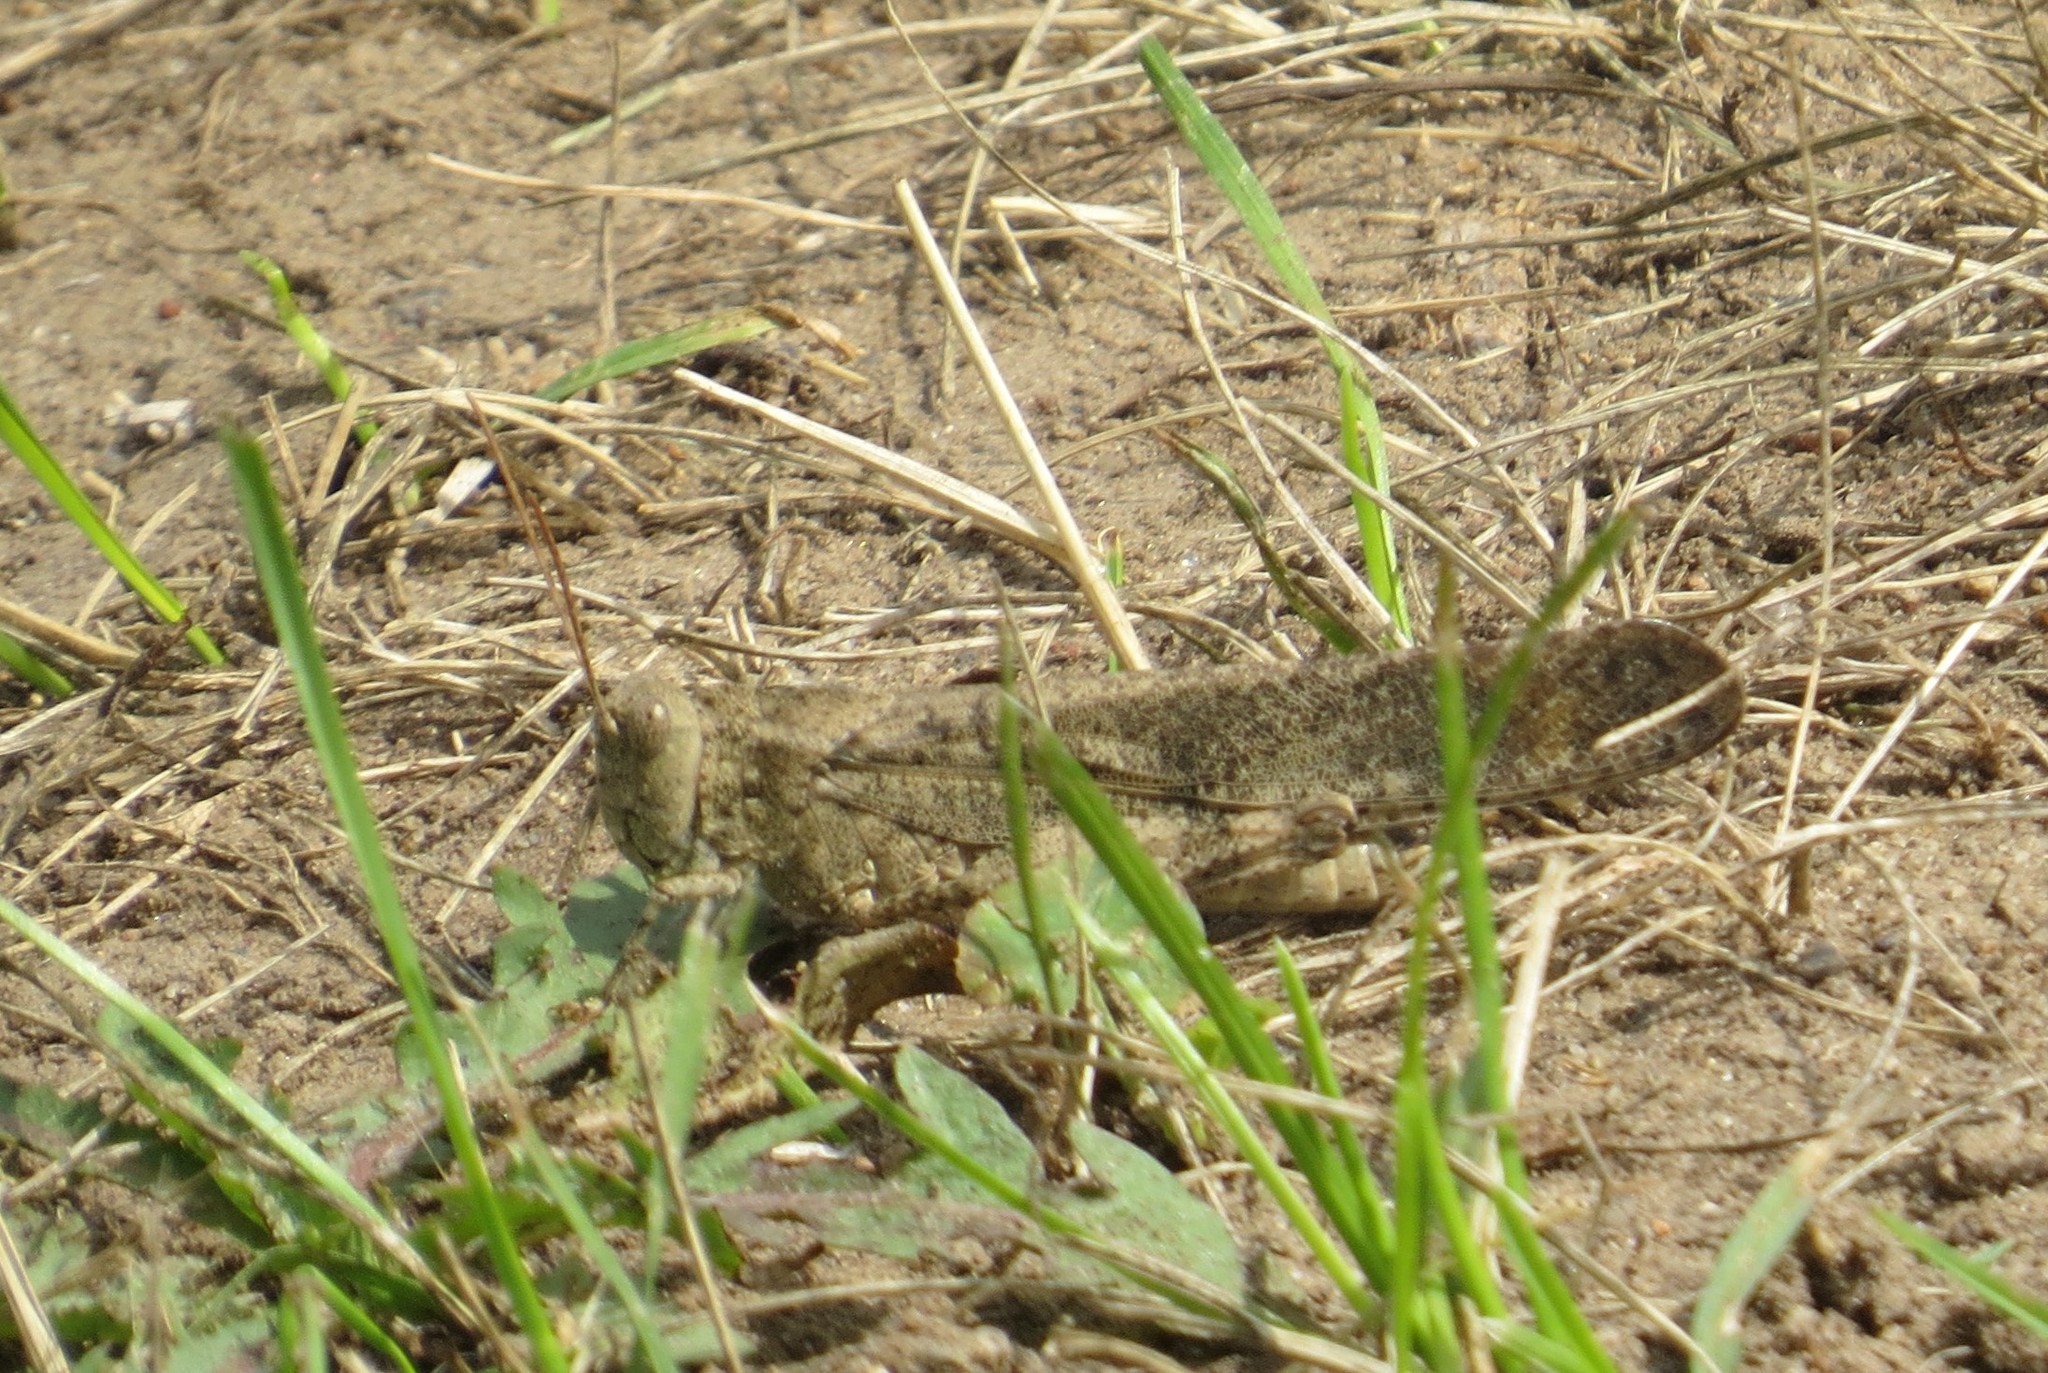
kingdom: Animalia
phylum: Arthropoda
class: Insecta
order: Orthoptera
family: Acrididae
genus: Dissosteira
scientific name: Dissosteira carolina
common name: Carolina grasshopper
